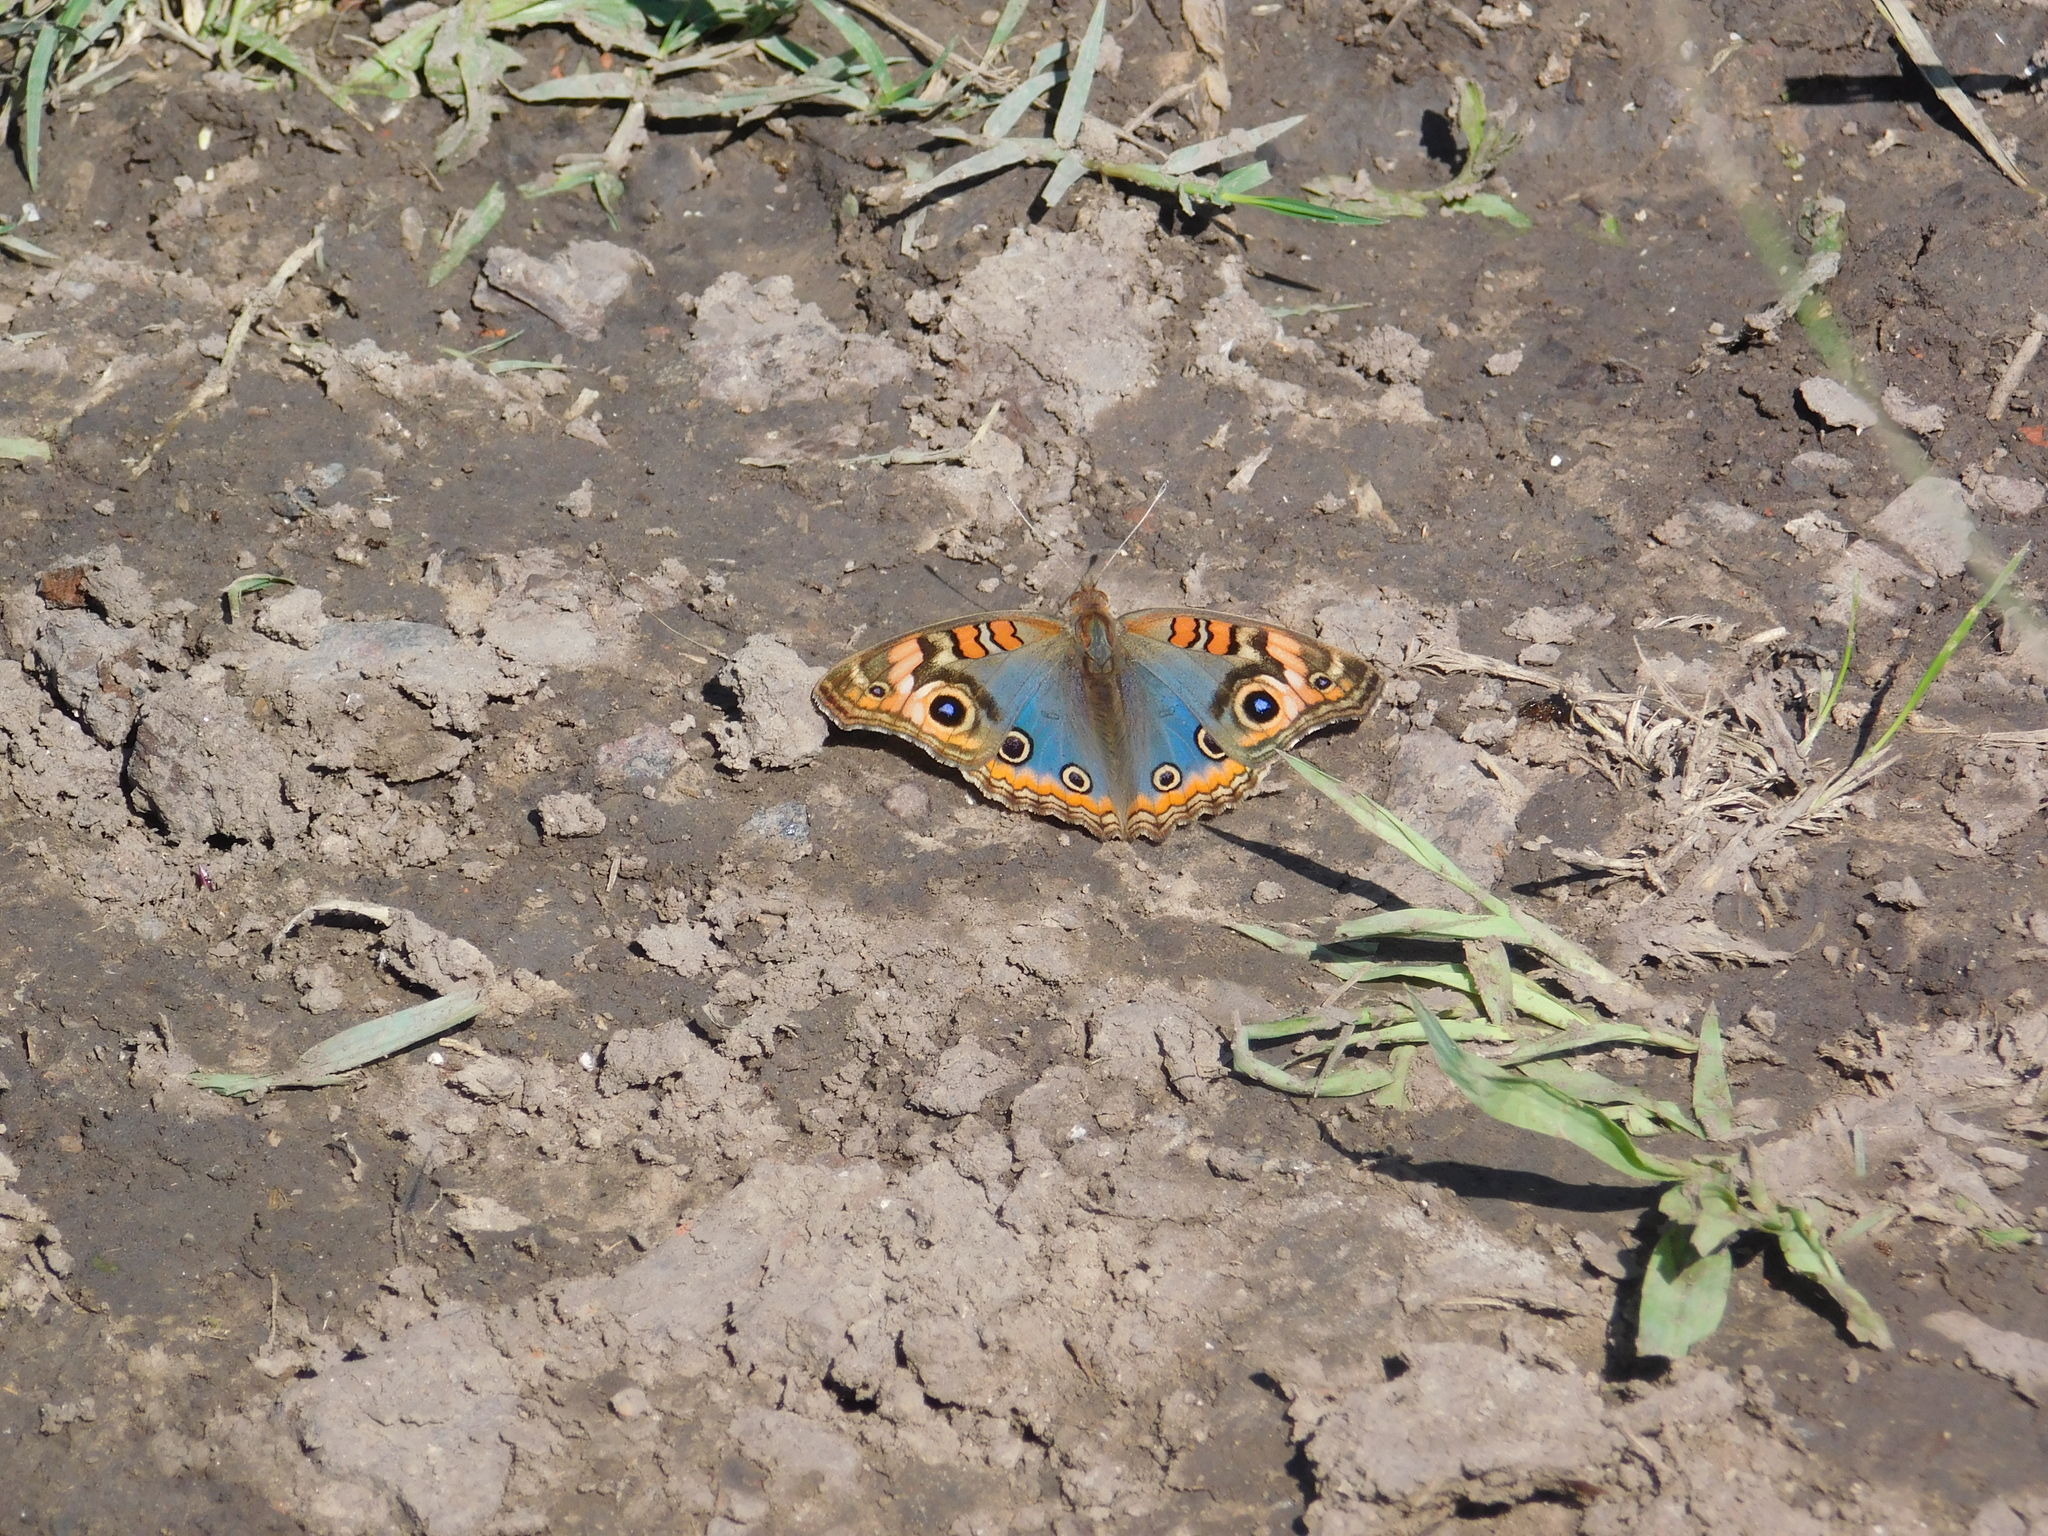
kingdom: Animalia
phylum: Arthropoda
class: Insecta
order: Lepidoptera
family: Nymphalidae
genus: Junonia
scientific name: Junonia lavinia
